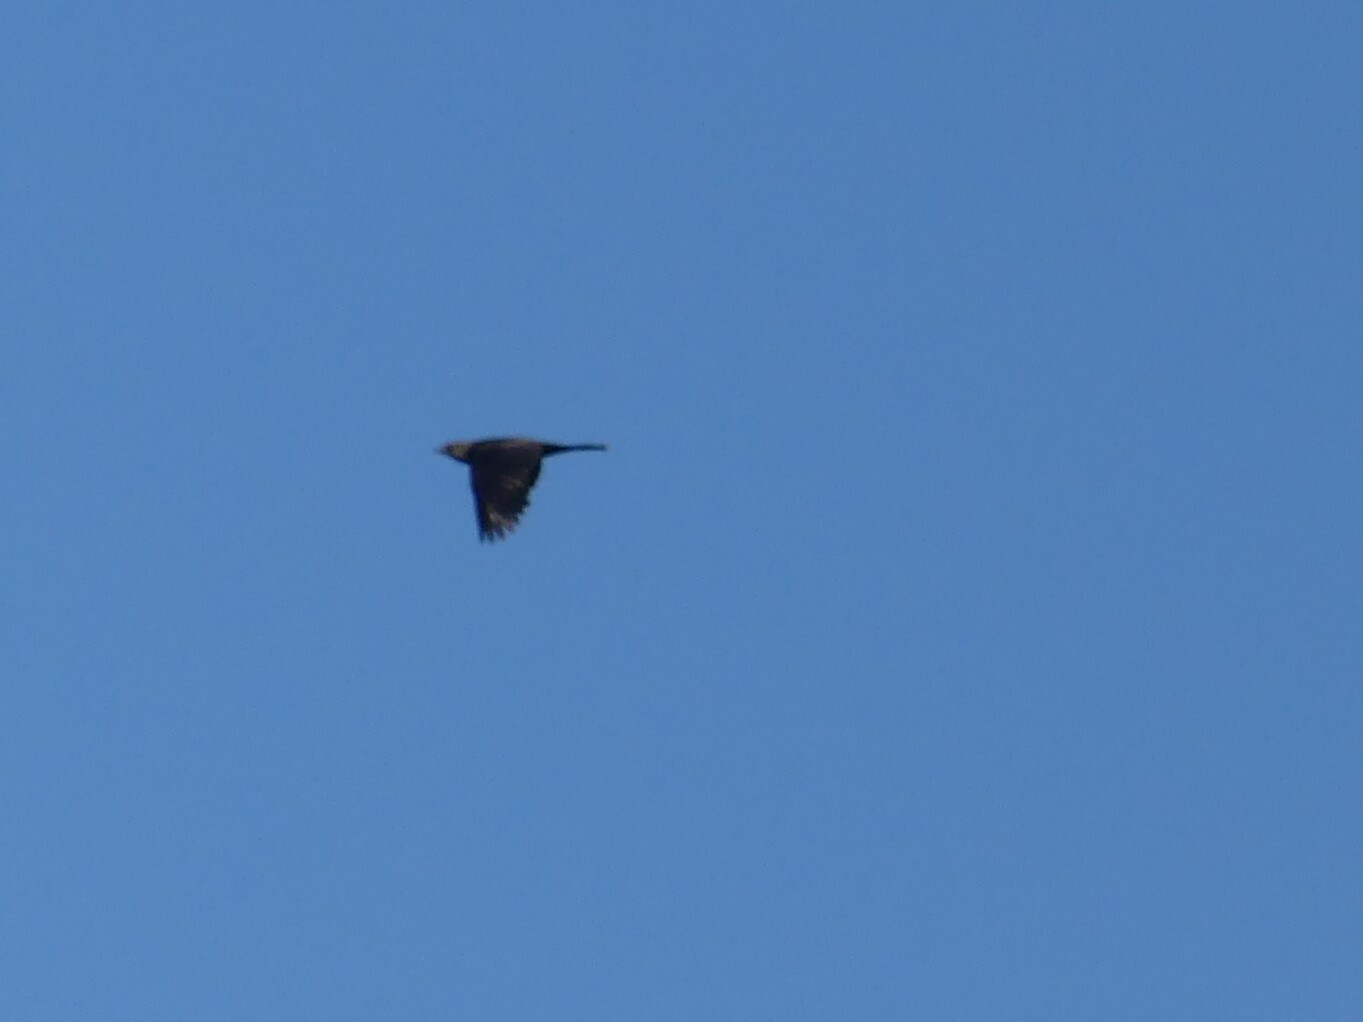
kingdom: Animalia
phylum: Chordata
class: Aves
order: Passeriformes
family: Icteridae
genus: Molothrus
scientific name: Molothrus ater
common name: Brown-headed cowbird
